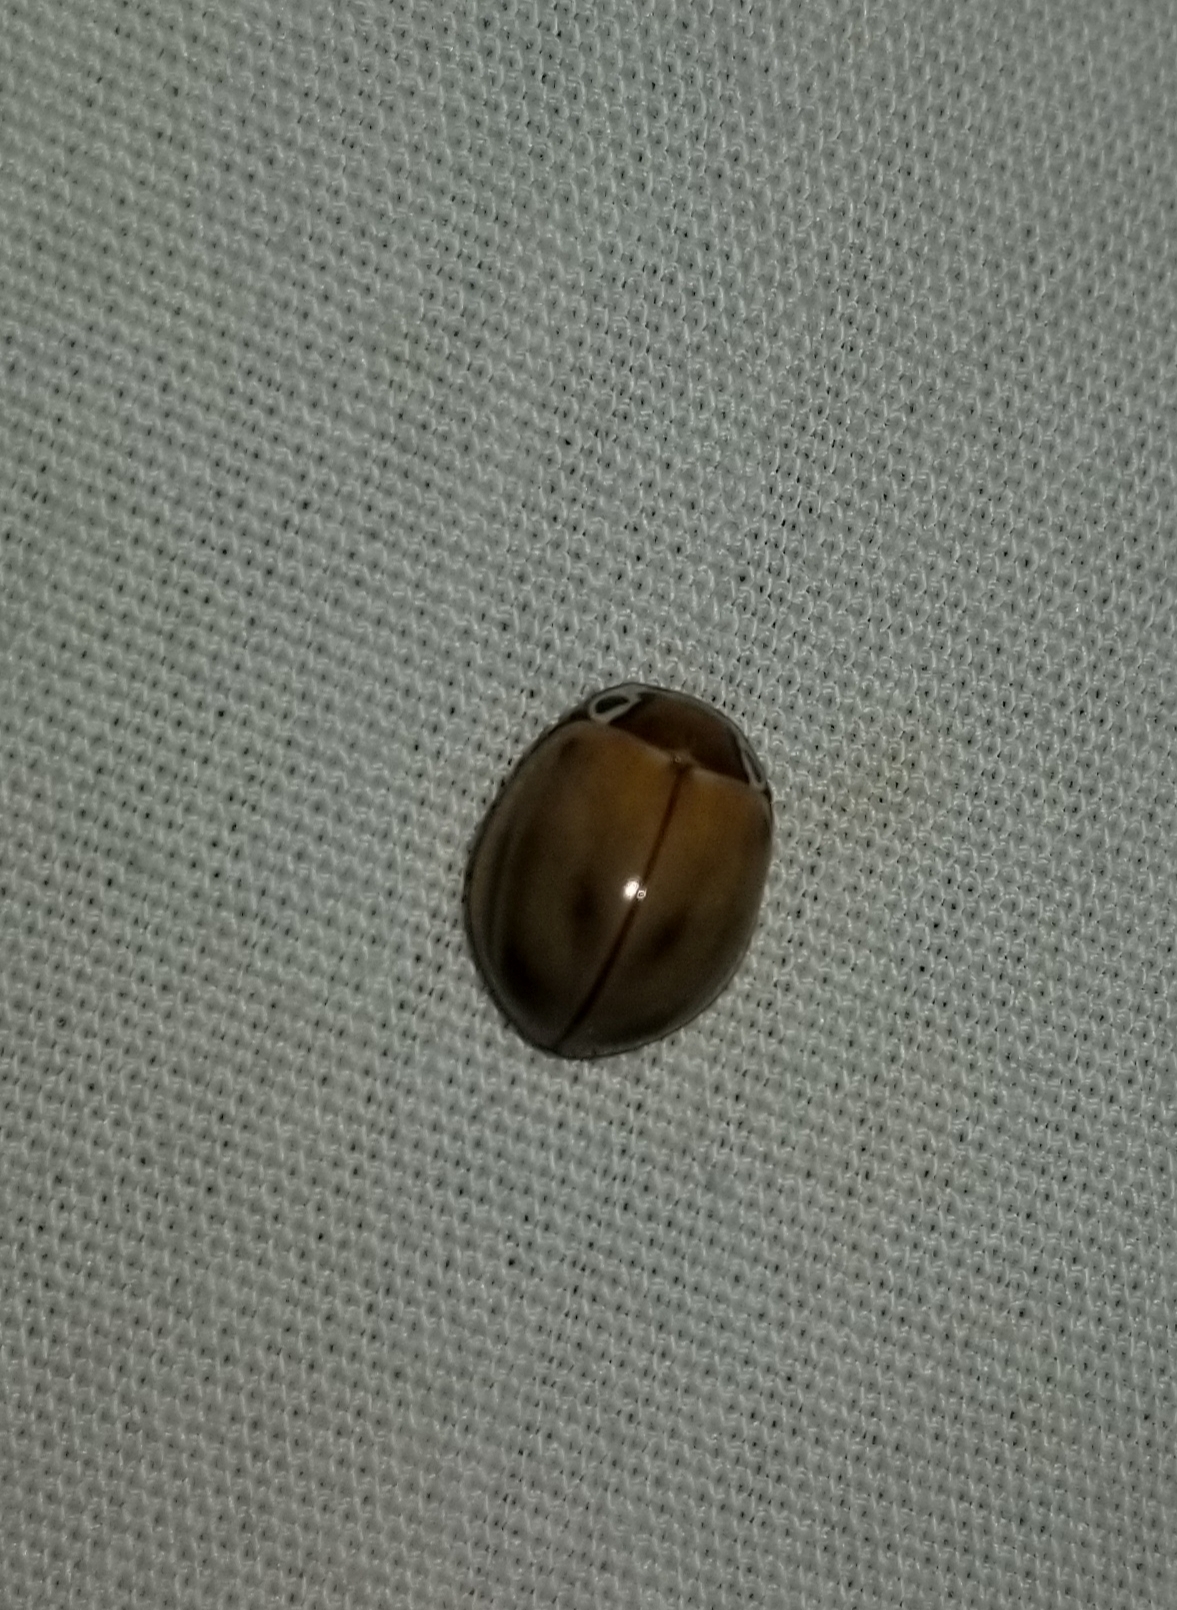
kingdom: Animalia
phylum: Arthropoda
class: Insecta
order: Coleoptera
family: Coccinellidae
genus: Myzia
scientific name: Myzia pullata
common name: Streaked lady beetle
